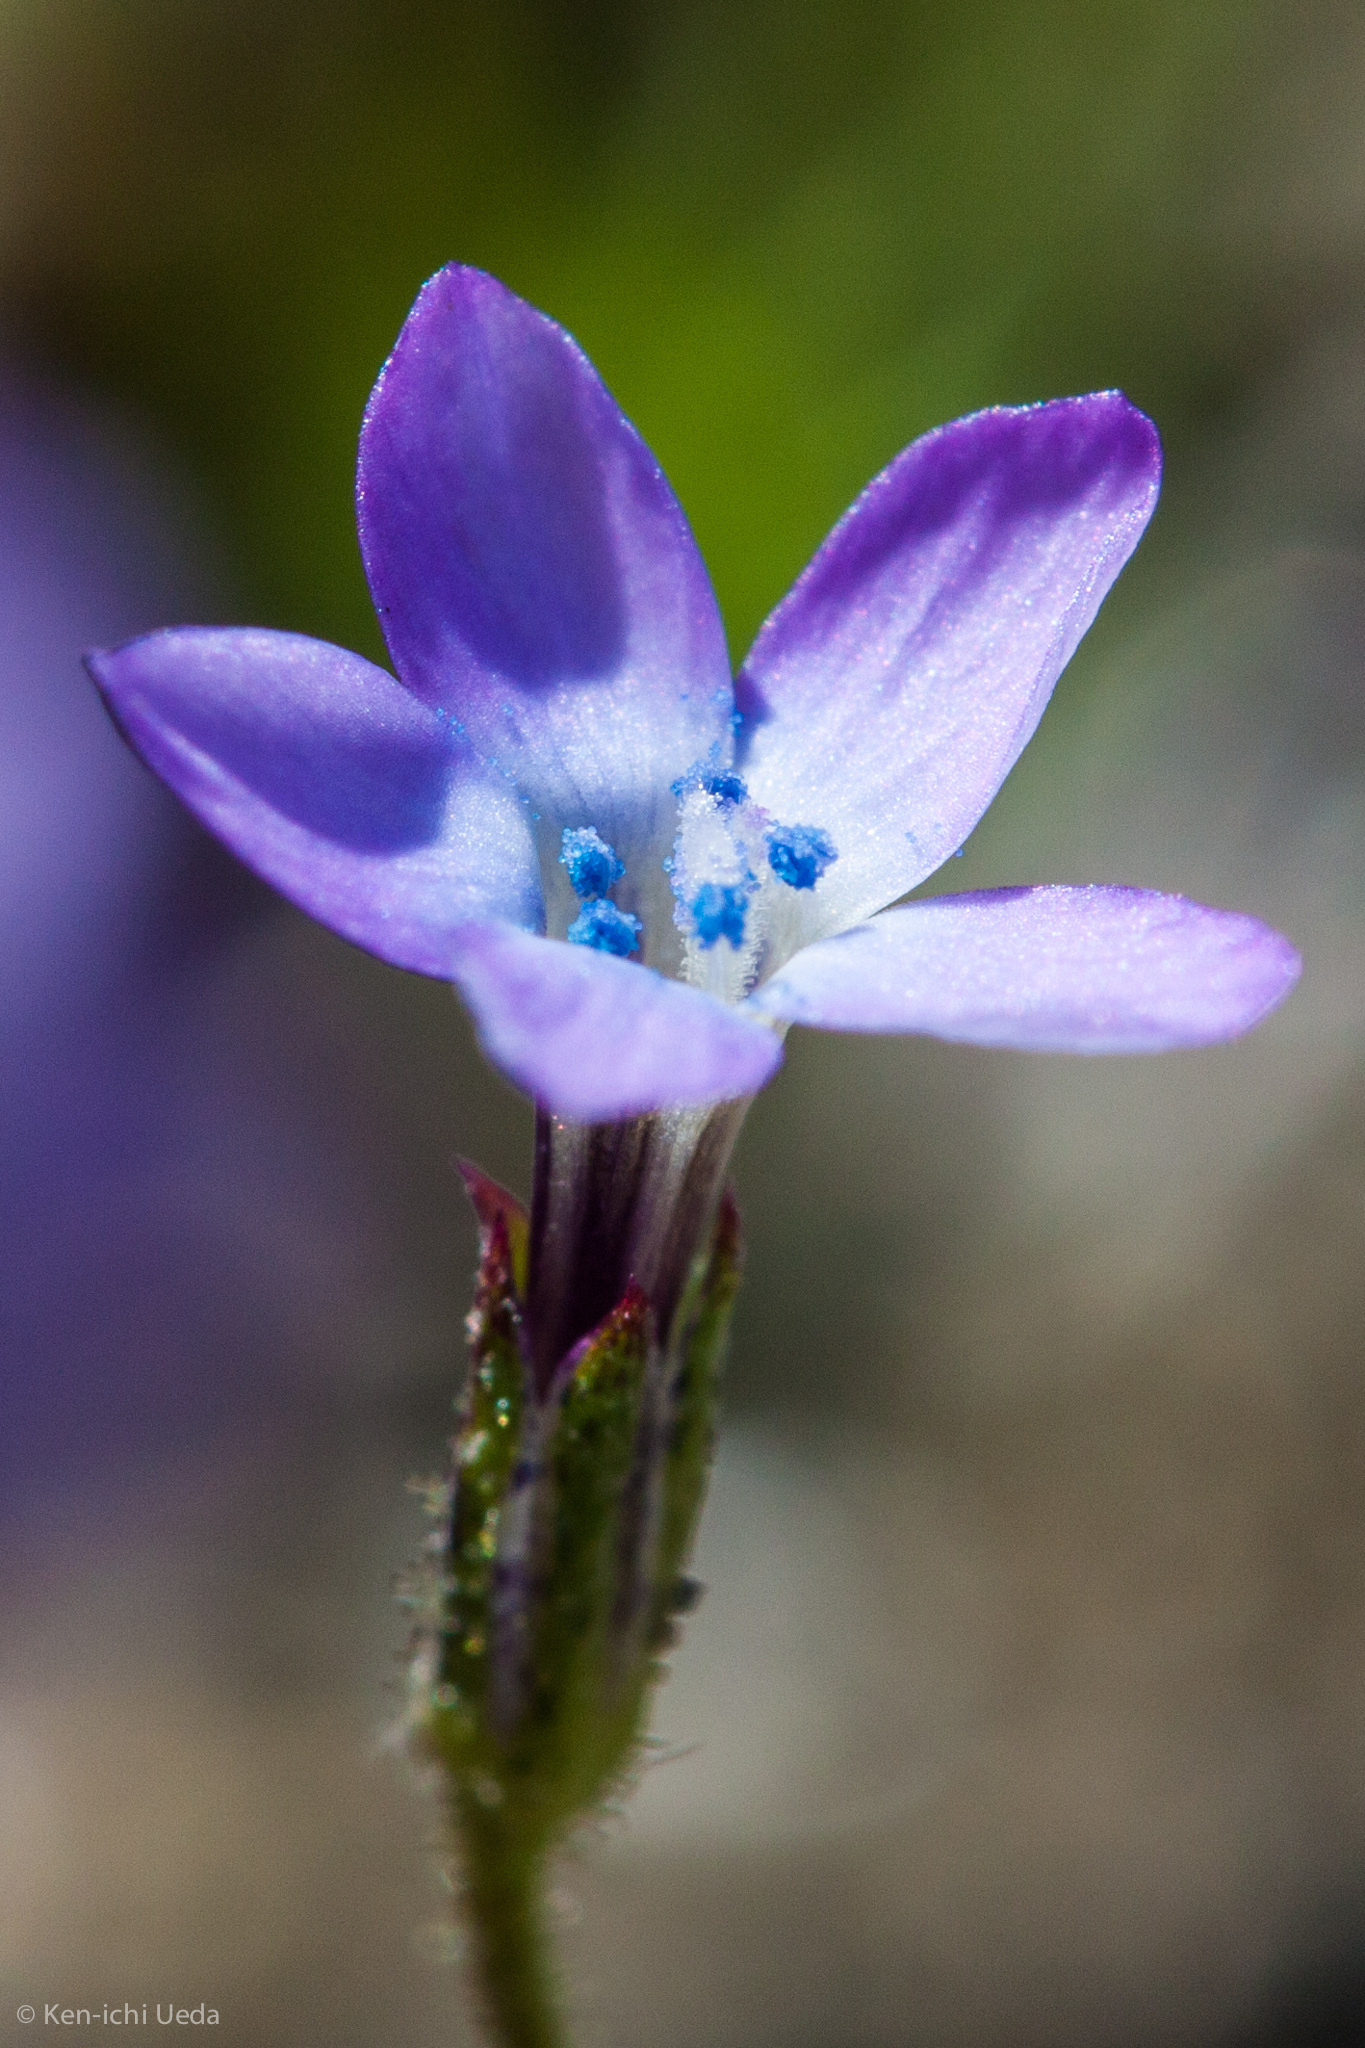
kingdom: Plantae
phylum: Tracheophyta
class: Magnoliopsida
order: Ericales
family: Polemoniaceae
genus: Gilia
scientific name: Gilia minor
